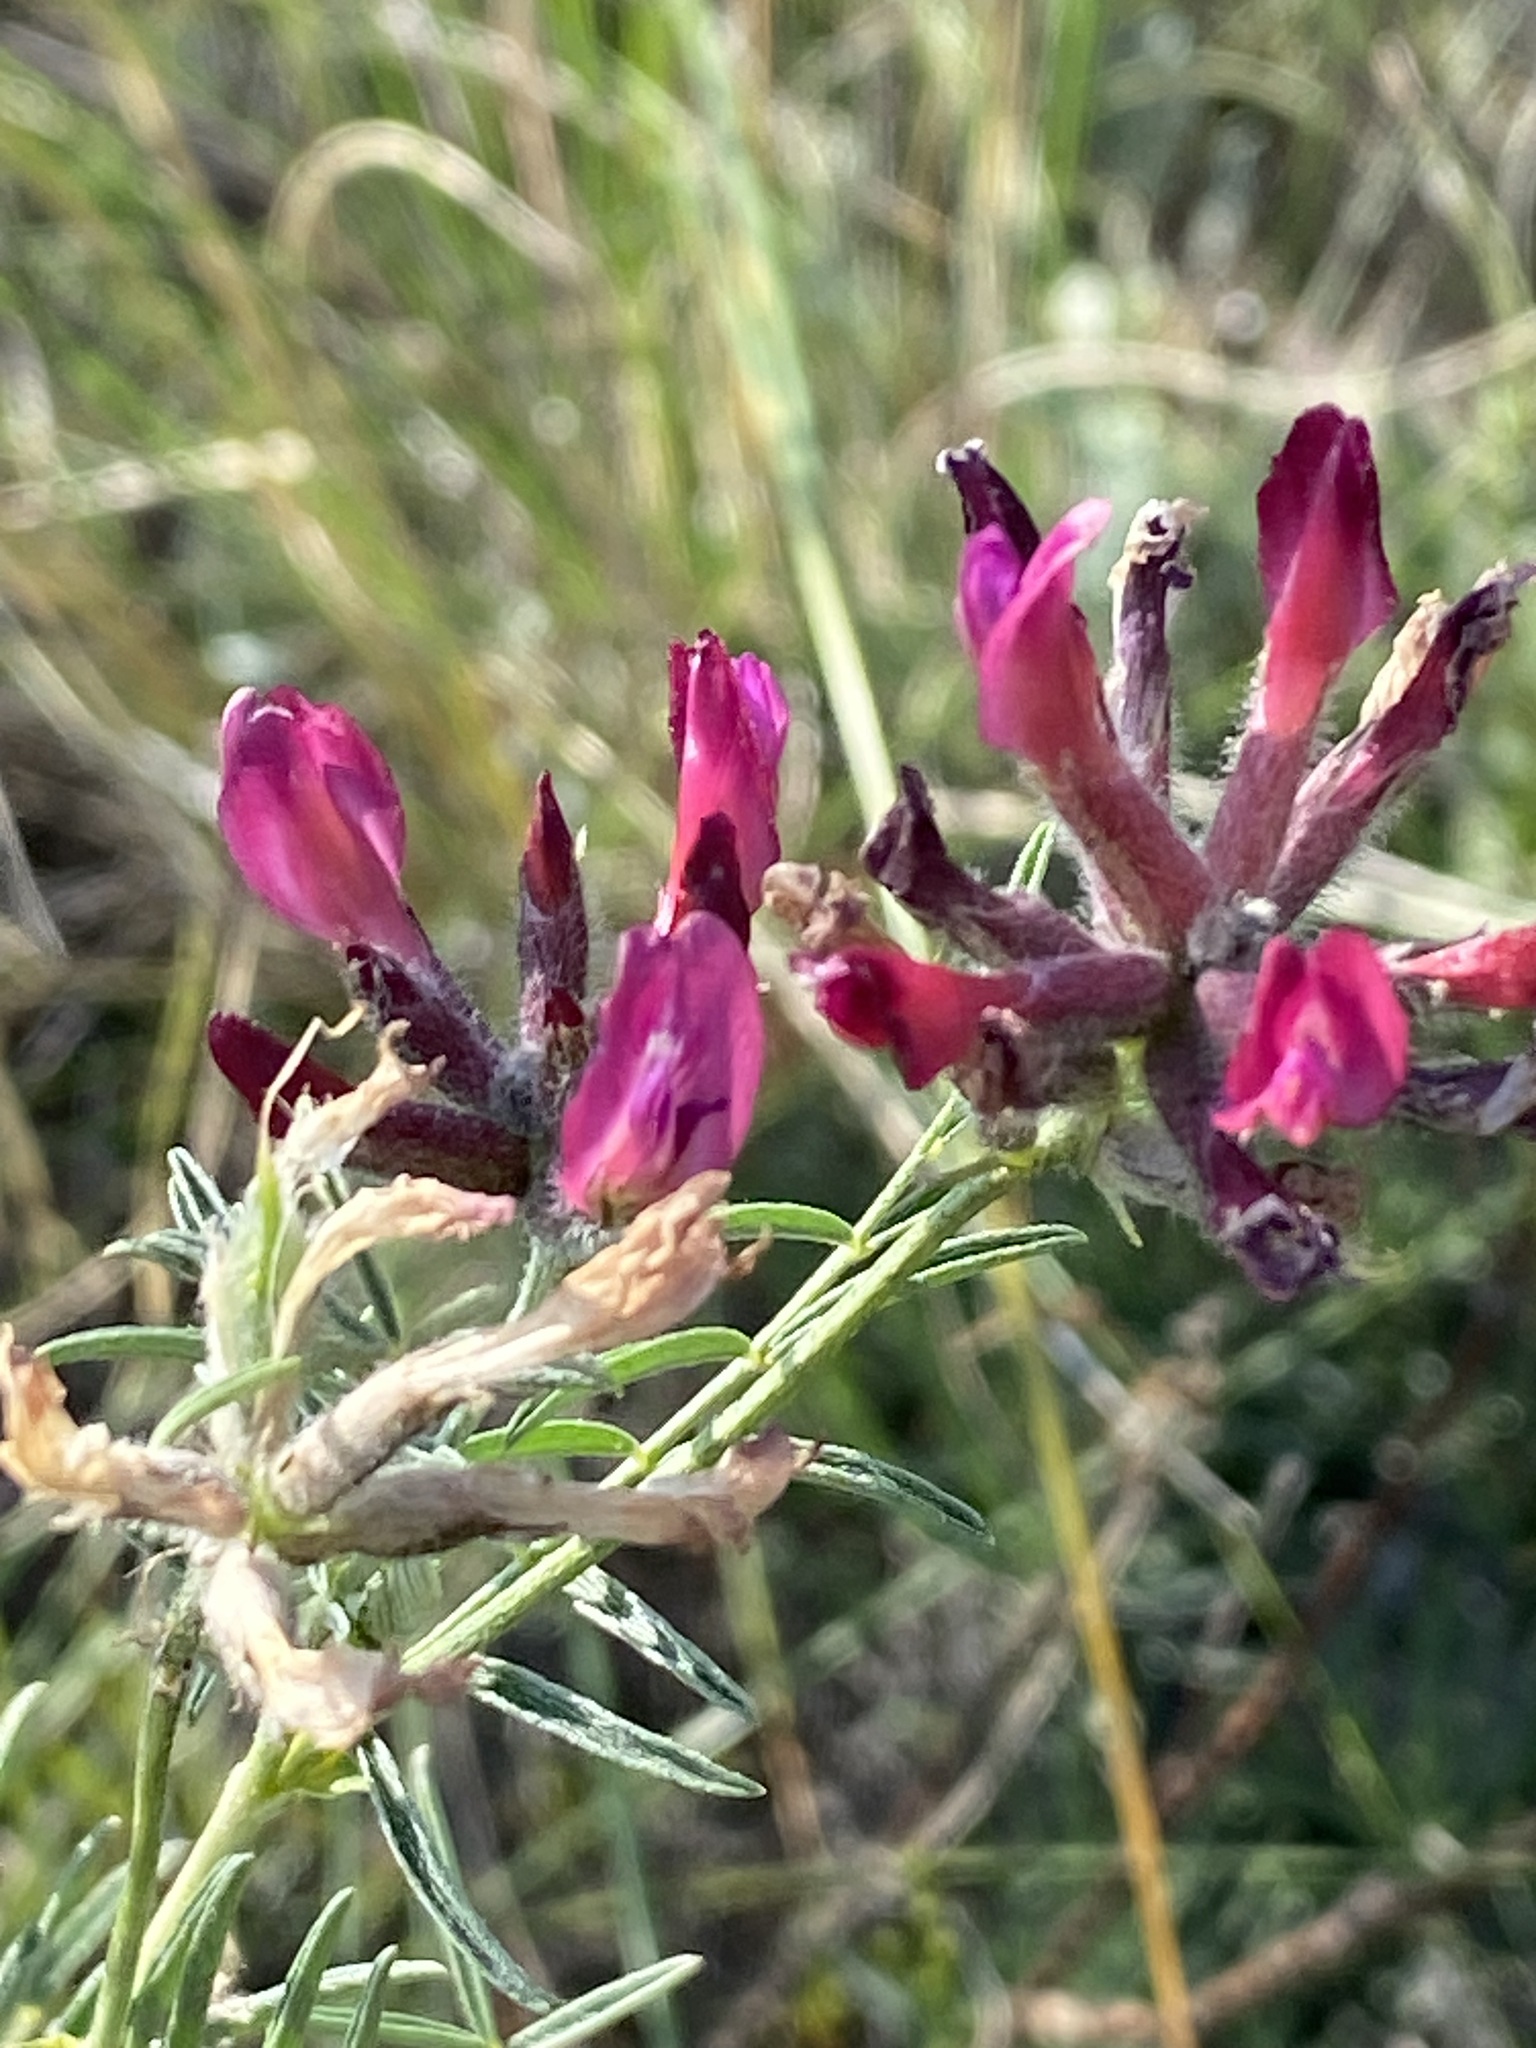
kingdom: Plantae
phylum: Tracheophyta
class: Magnoliopsida
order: Fabales
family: Fabaceae
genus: Astragalus
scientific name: Astragalus cornutus
